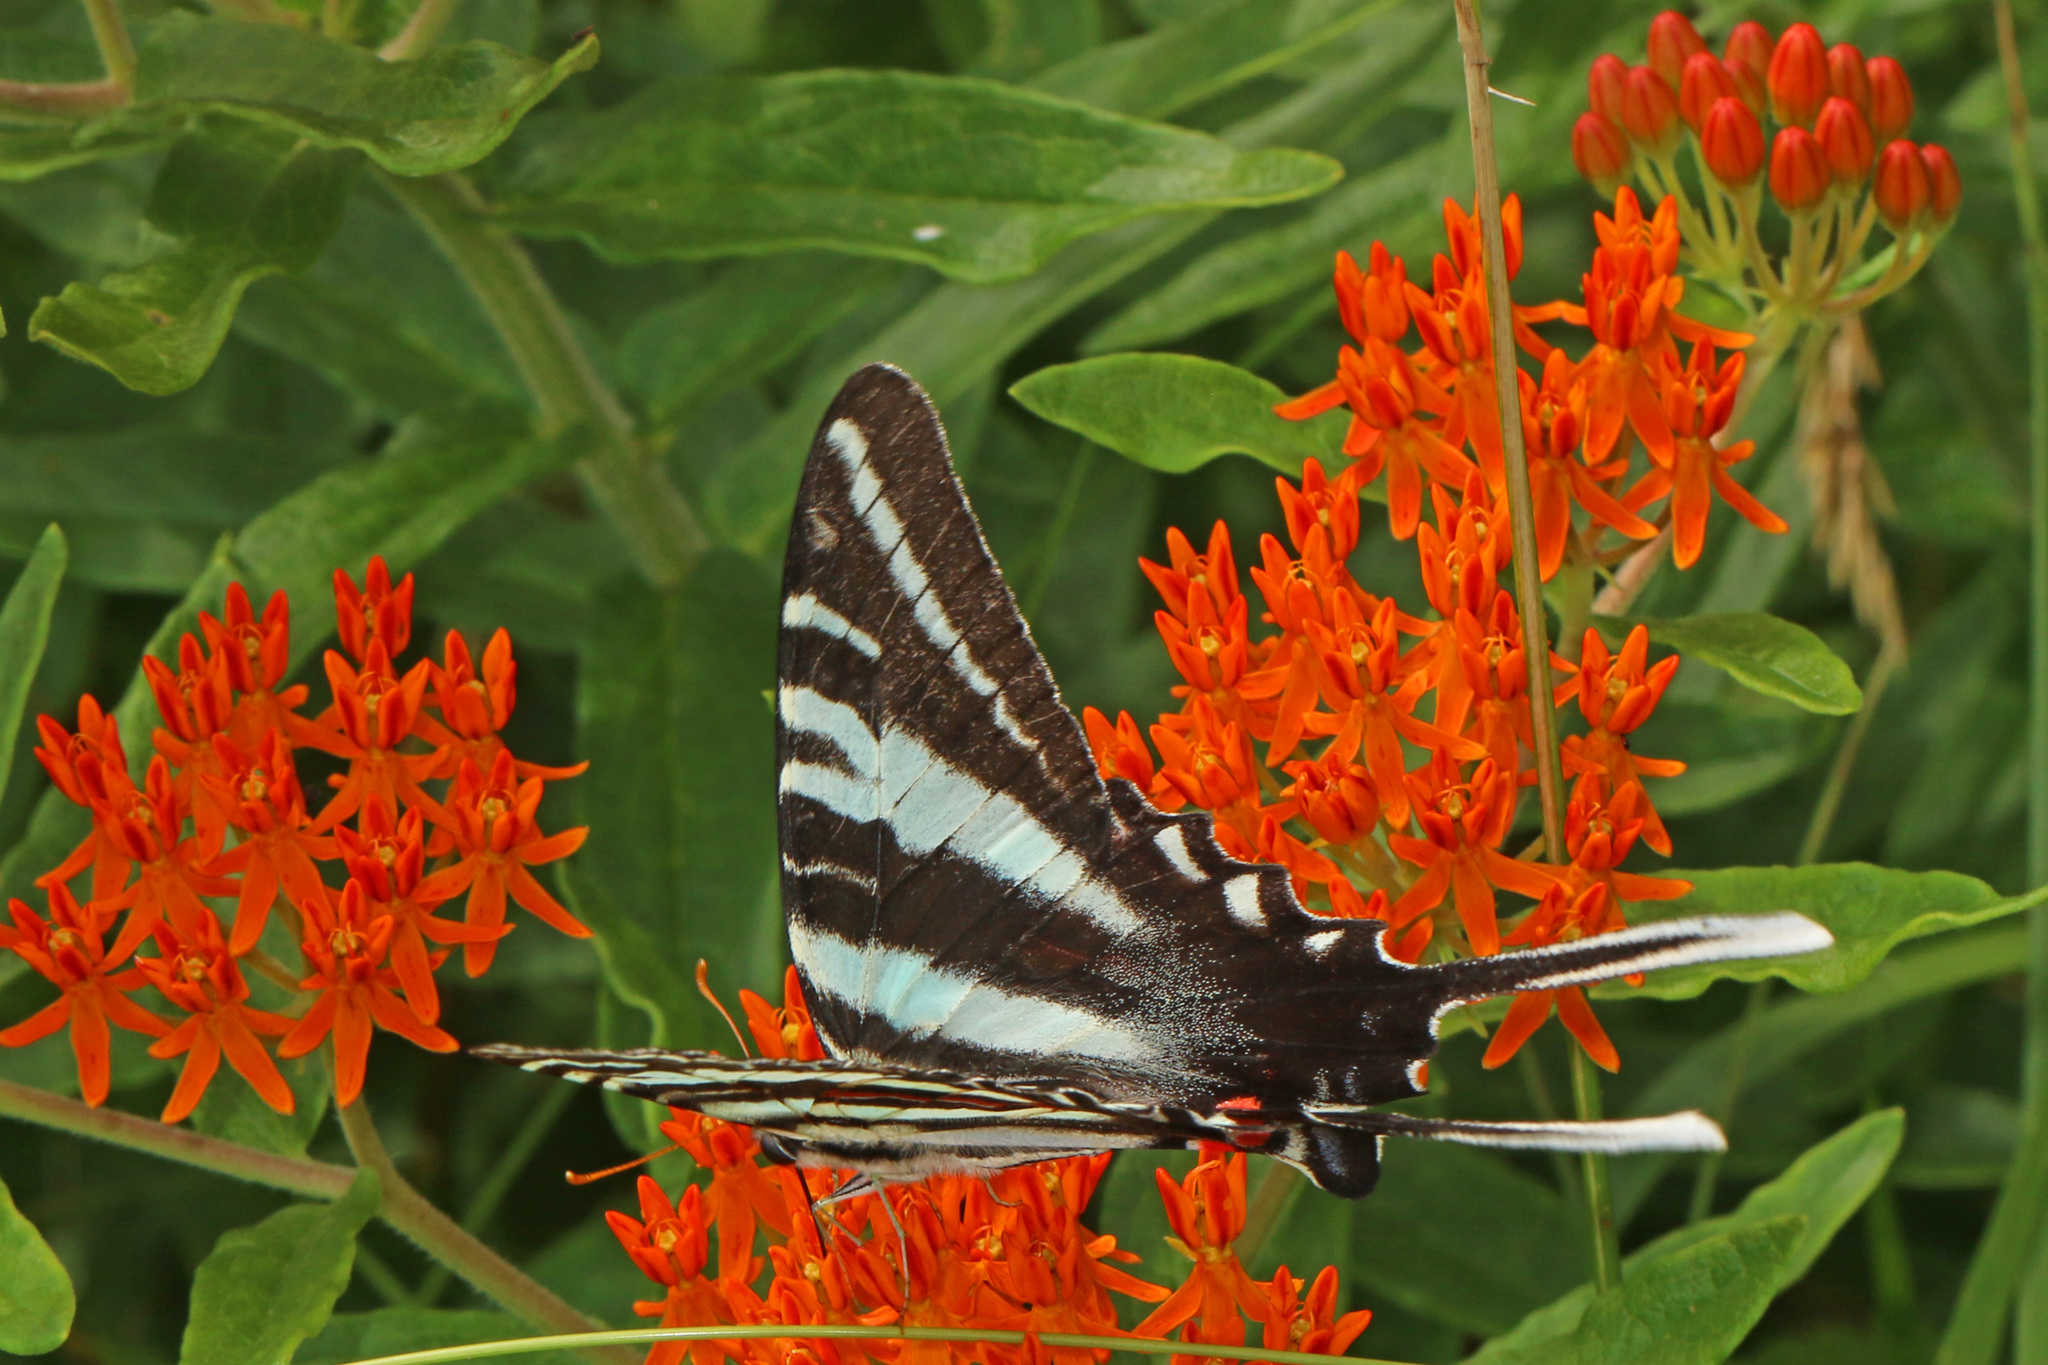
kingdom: Animalia
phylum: Arthropoda
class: Insecta
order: Lepidoptera
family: Papilionidae
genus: Protographium
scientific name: Protographium marcellus
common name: Zebra swallowtail
